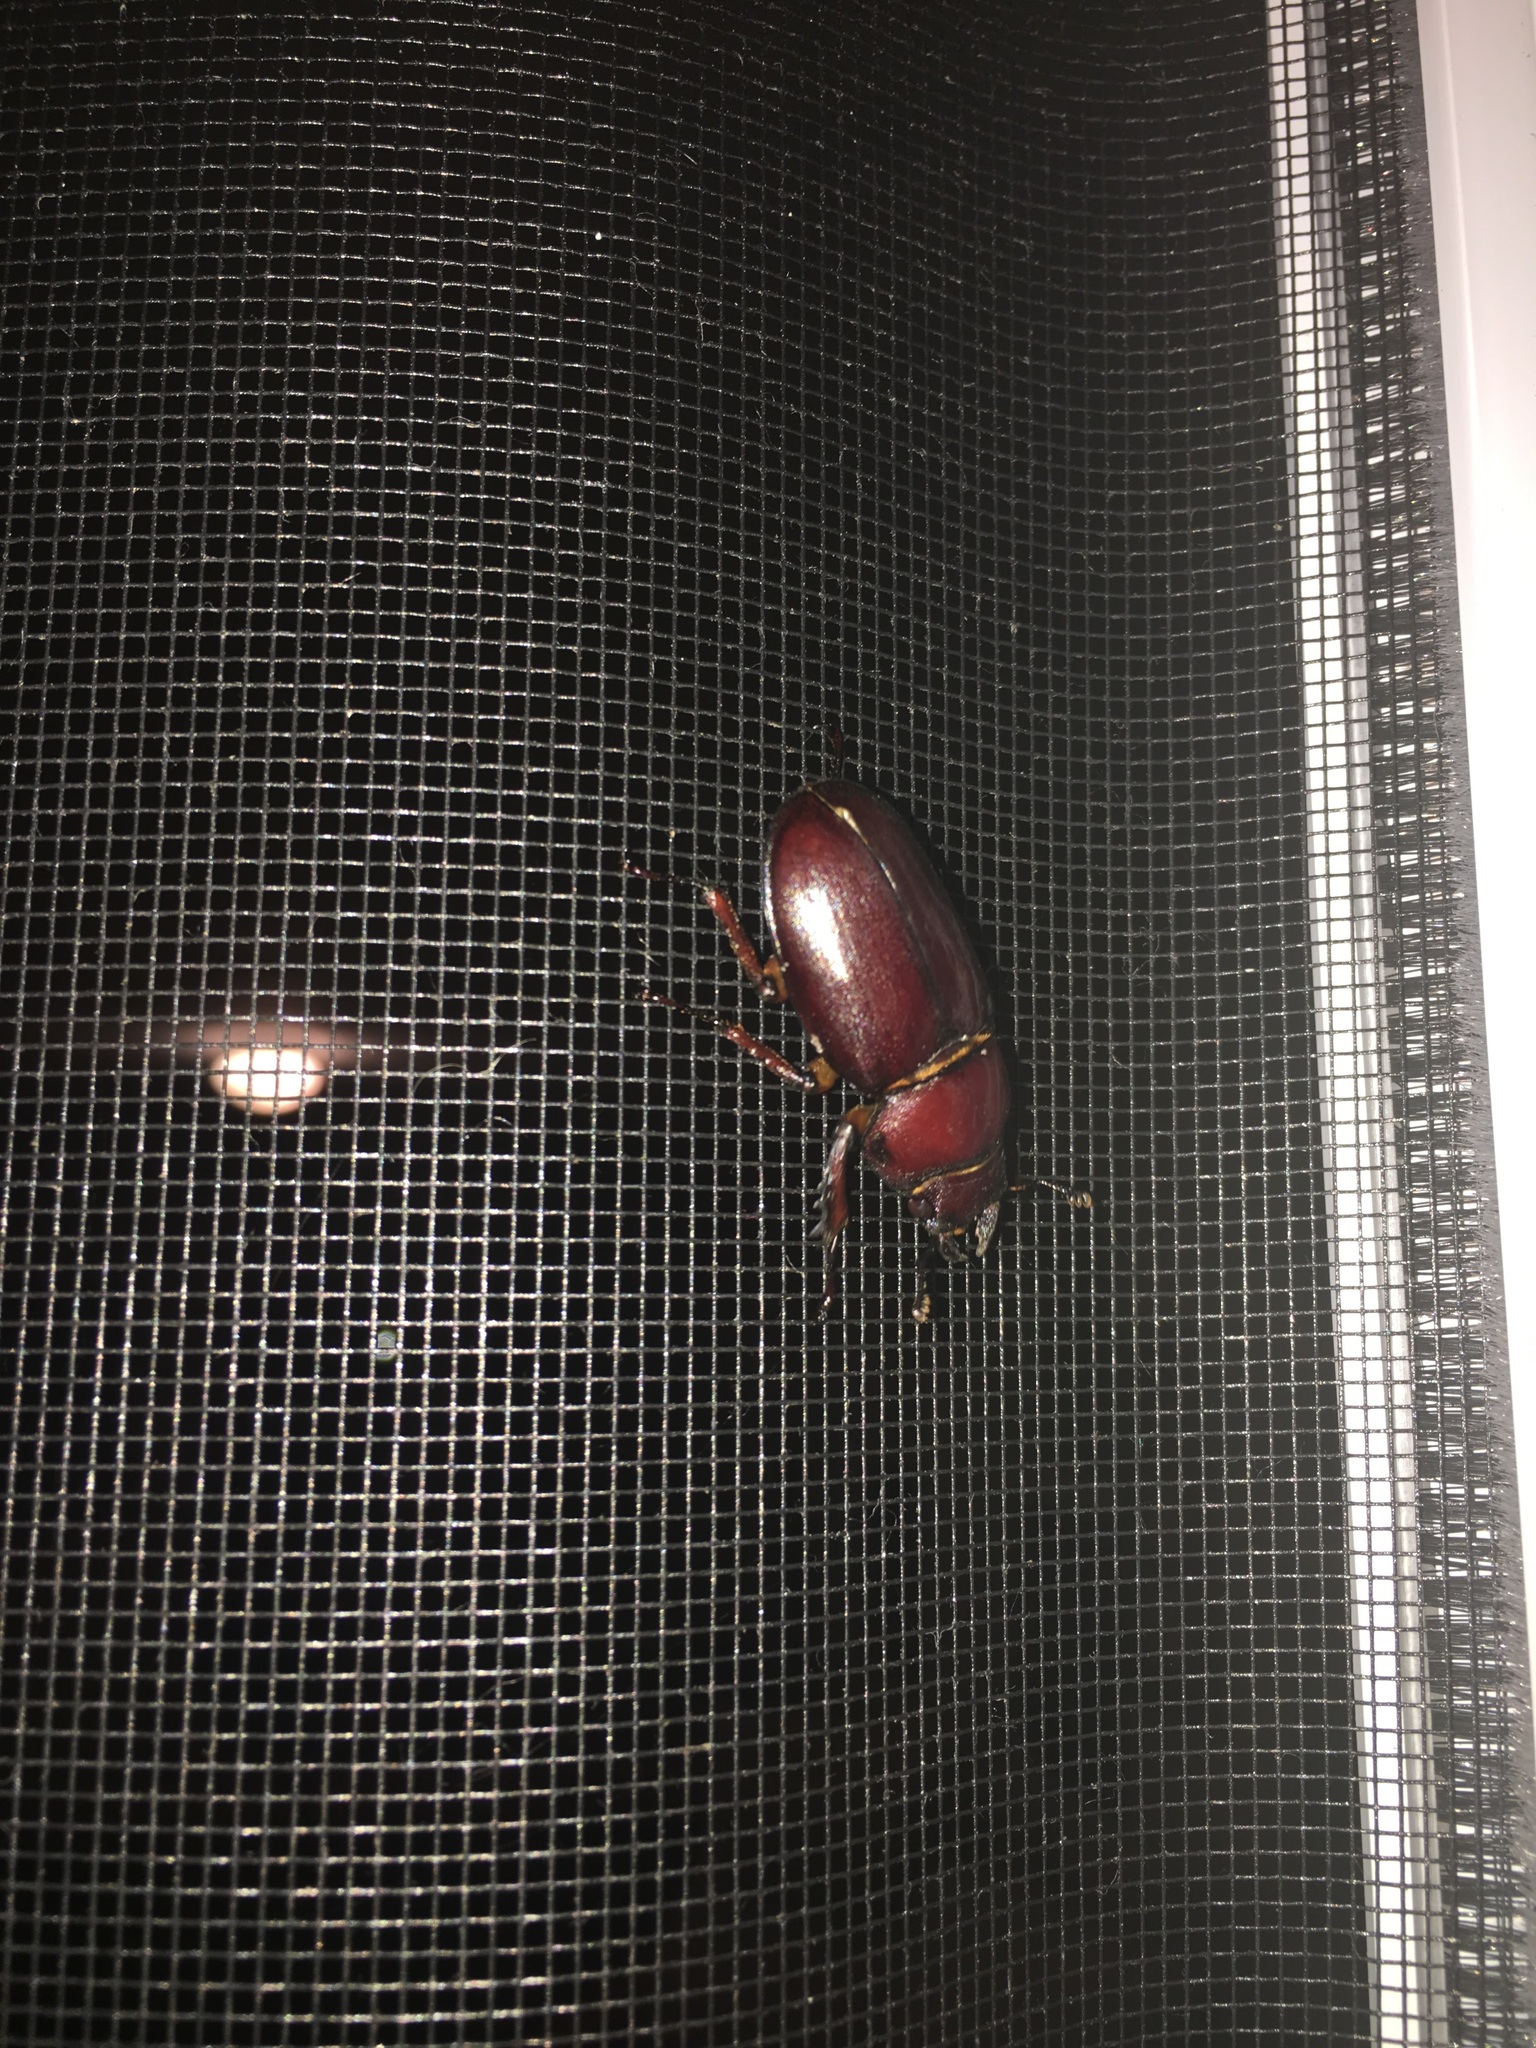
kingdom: Animalia
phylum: Arthropoda
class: Insecta
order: Coleoptera
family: Lucanidae
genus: Lucanus
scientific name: Lucanus capreolus
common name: Stag beetle
